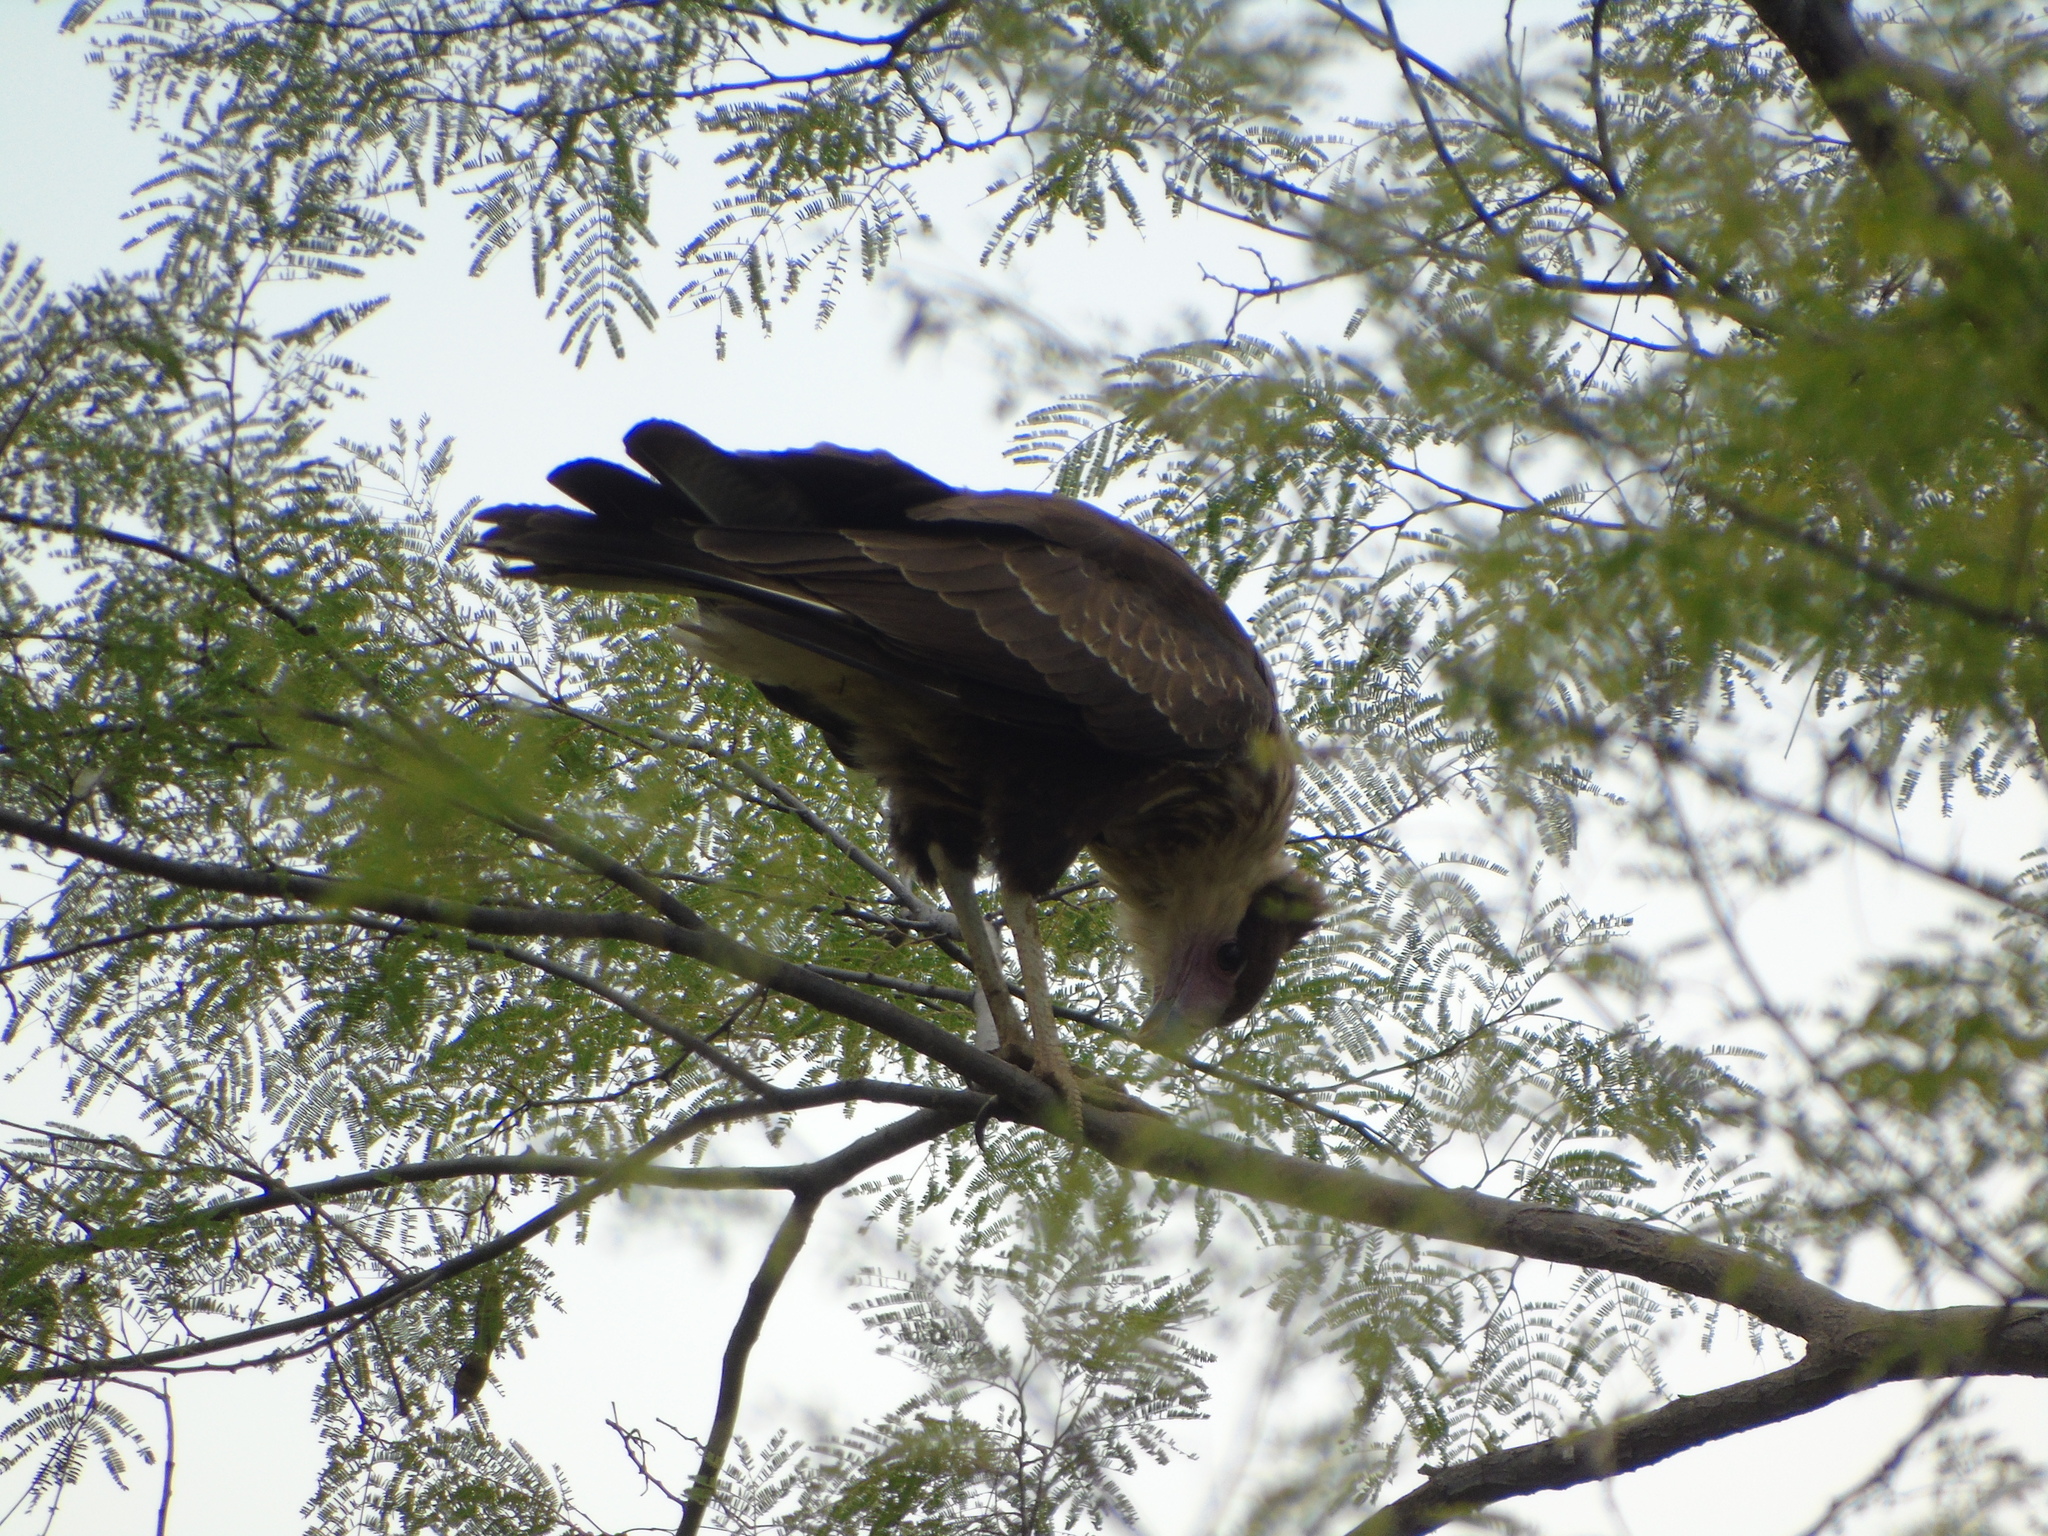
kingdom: Animalia
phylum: Chordata
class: Aves
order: Falconiformes
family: Falconidae
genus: Caracara
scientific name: Caracara plancus
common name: Southern caracara
